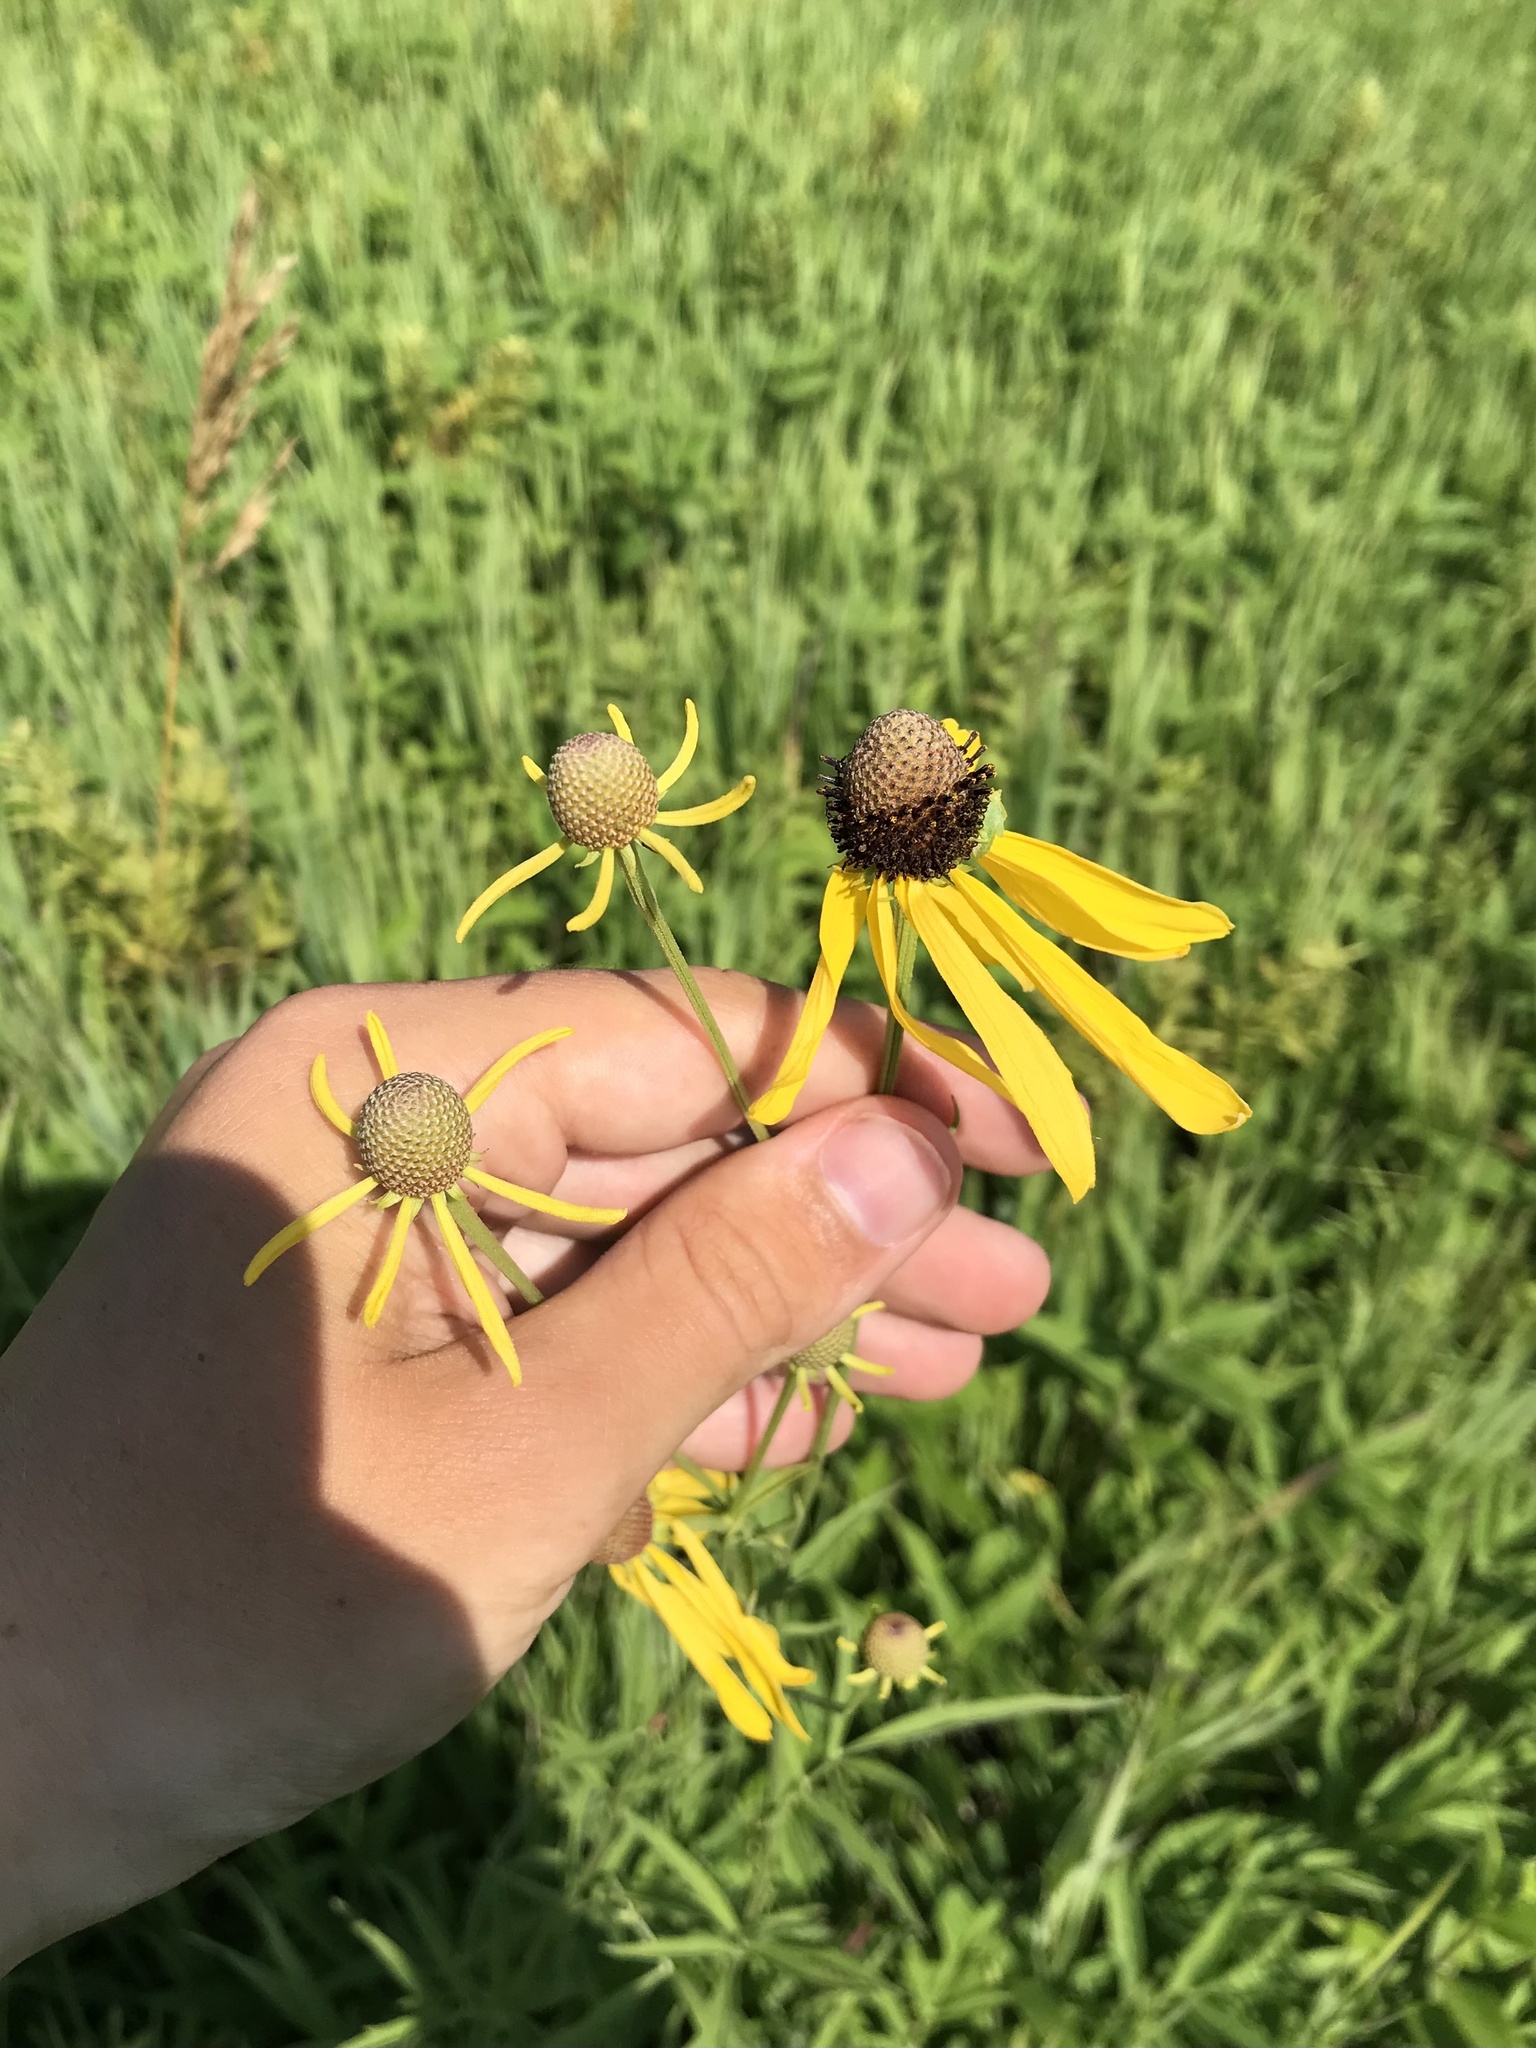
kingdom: Plantae
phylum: Tracheophyta
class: Magnoliopsida
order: Asterales
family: Asteraceae
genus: Ratibida
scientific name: Ratibida pinnata
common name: Drooping prairie-coneflower
